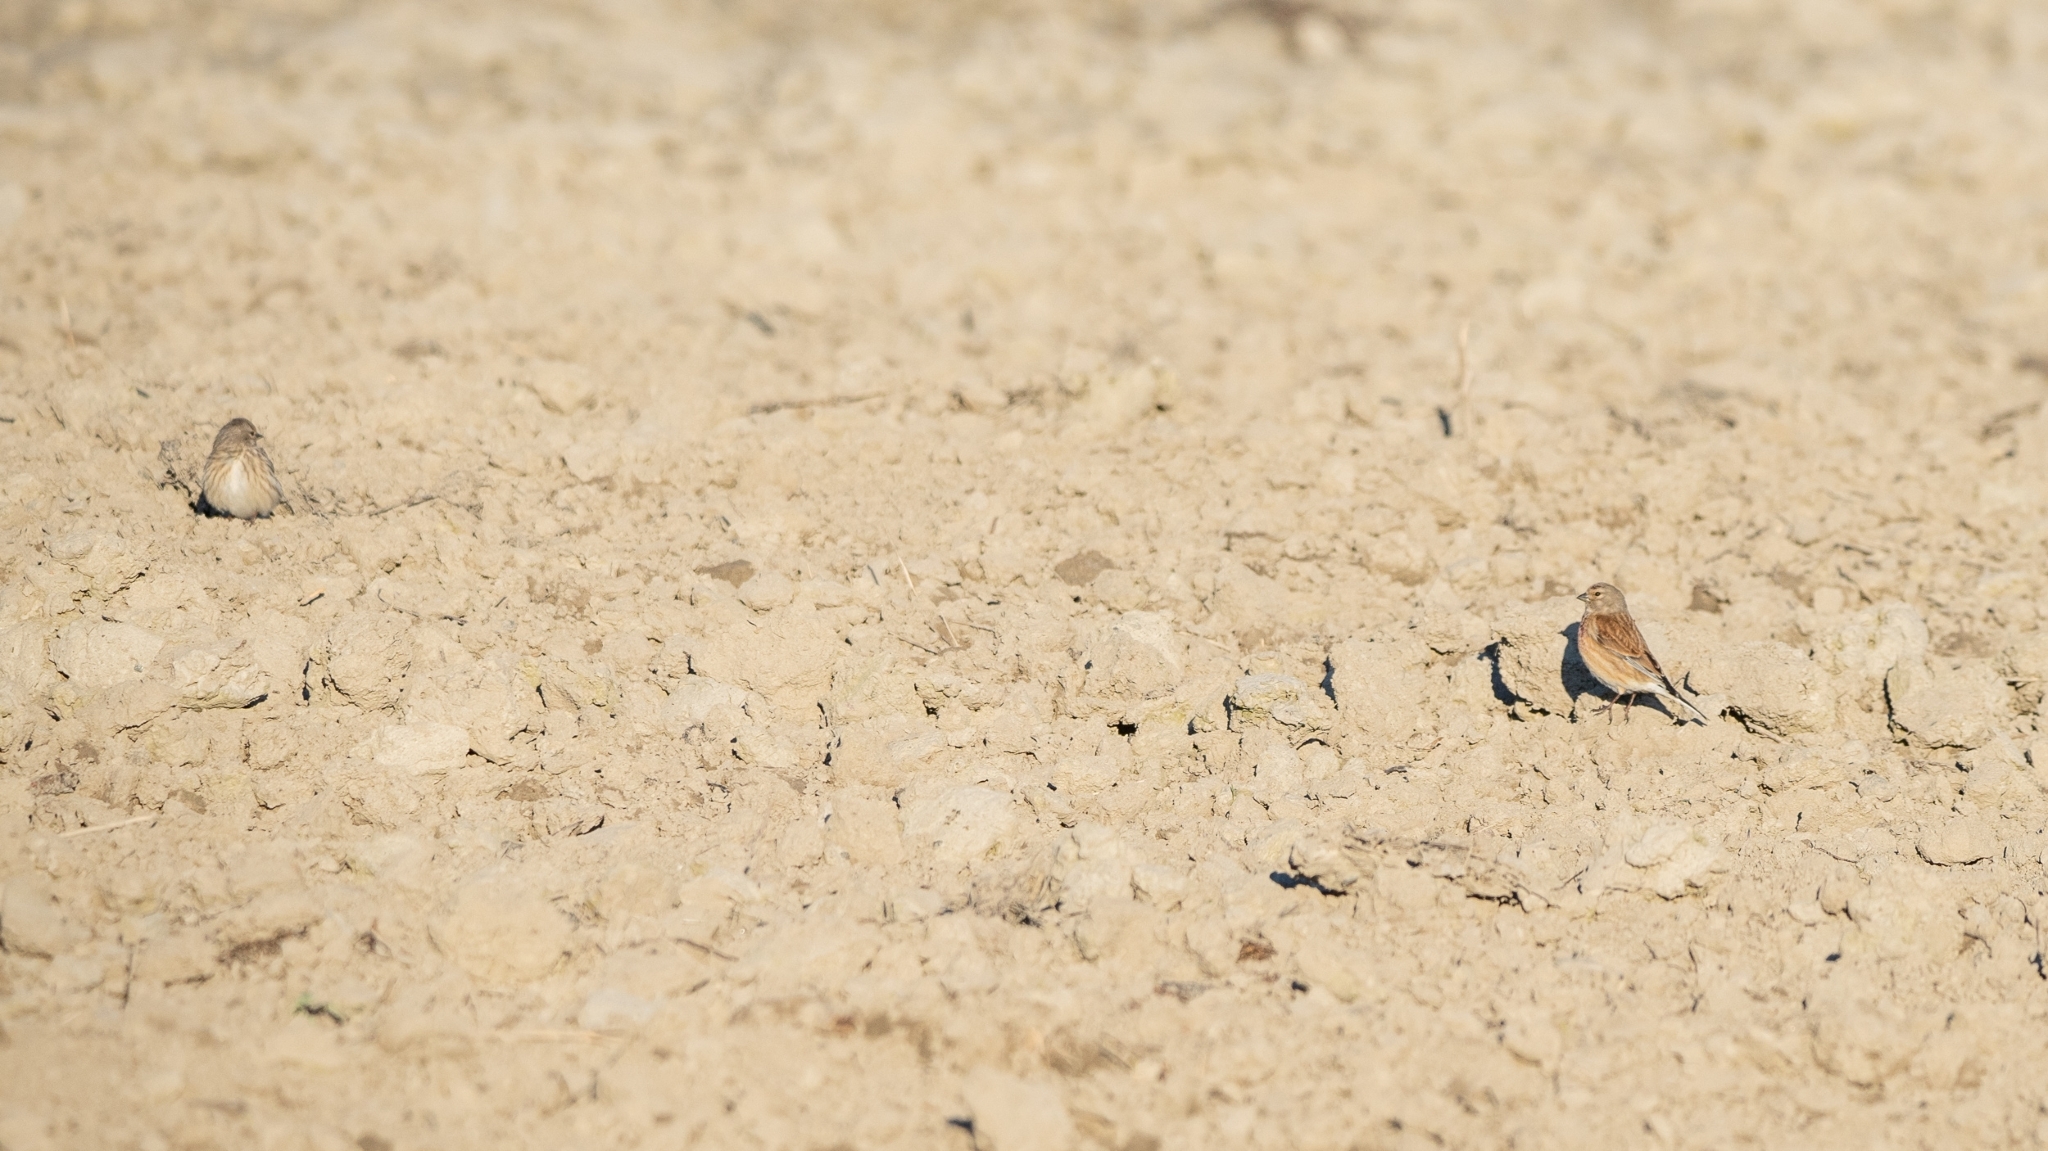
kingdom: Animalia
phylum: Chordata
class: Aves
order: Passeriformes
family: Fringillidae
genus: Linaria
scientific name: Linaria cannabina
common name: Common linnet
